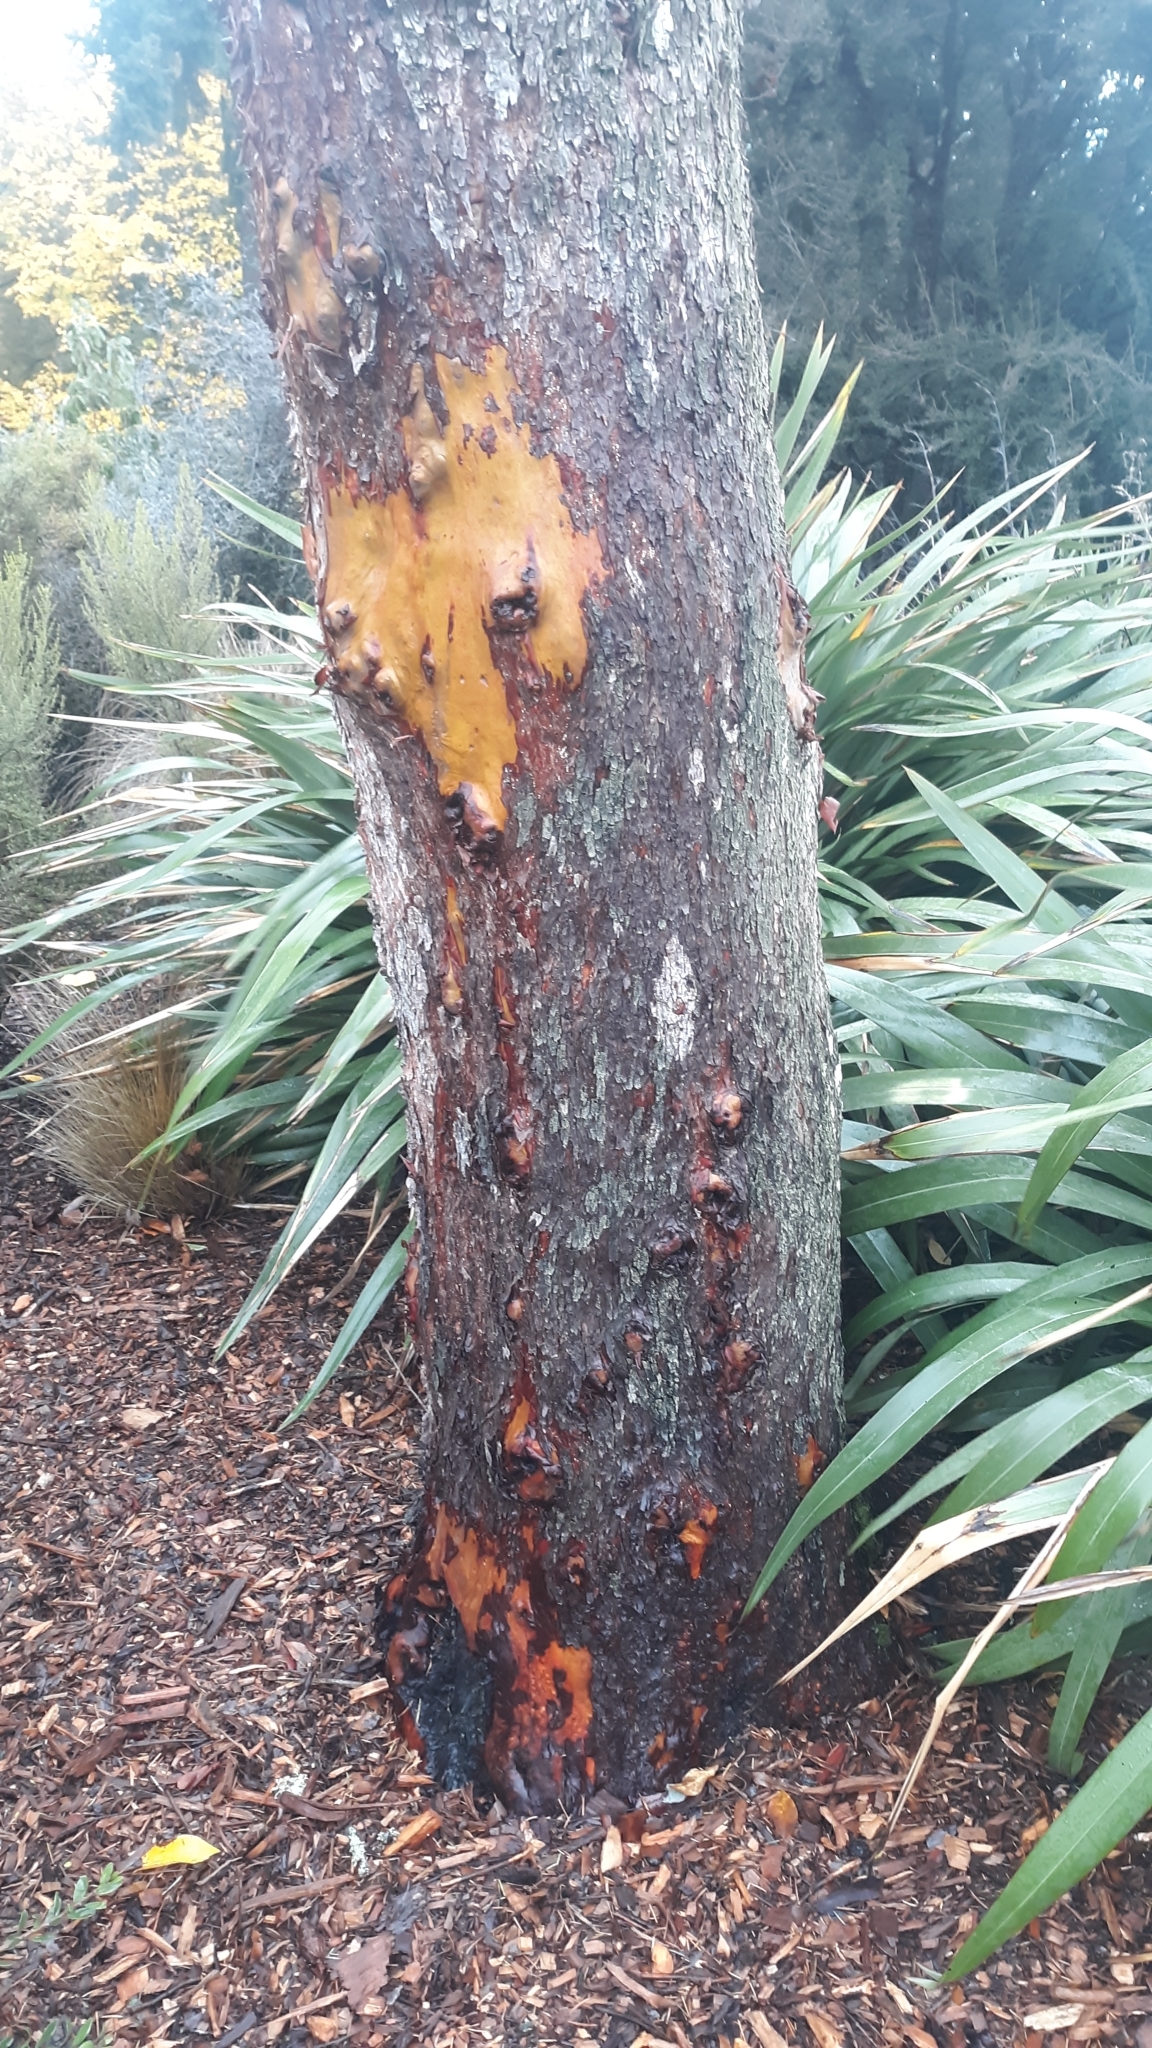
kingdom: Plantae
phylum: Tracheophyta
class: Magnoliopsida
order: Ericales
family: Ericaceae
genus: Arbutus
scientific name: Arbutus menziesii
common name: Pacific madrone
